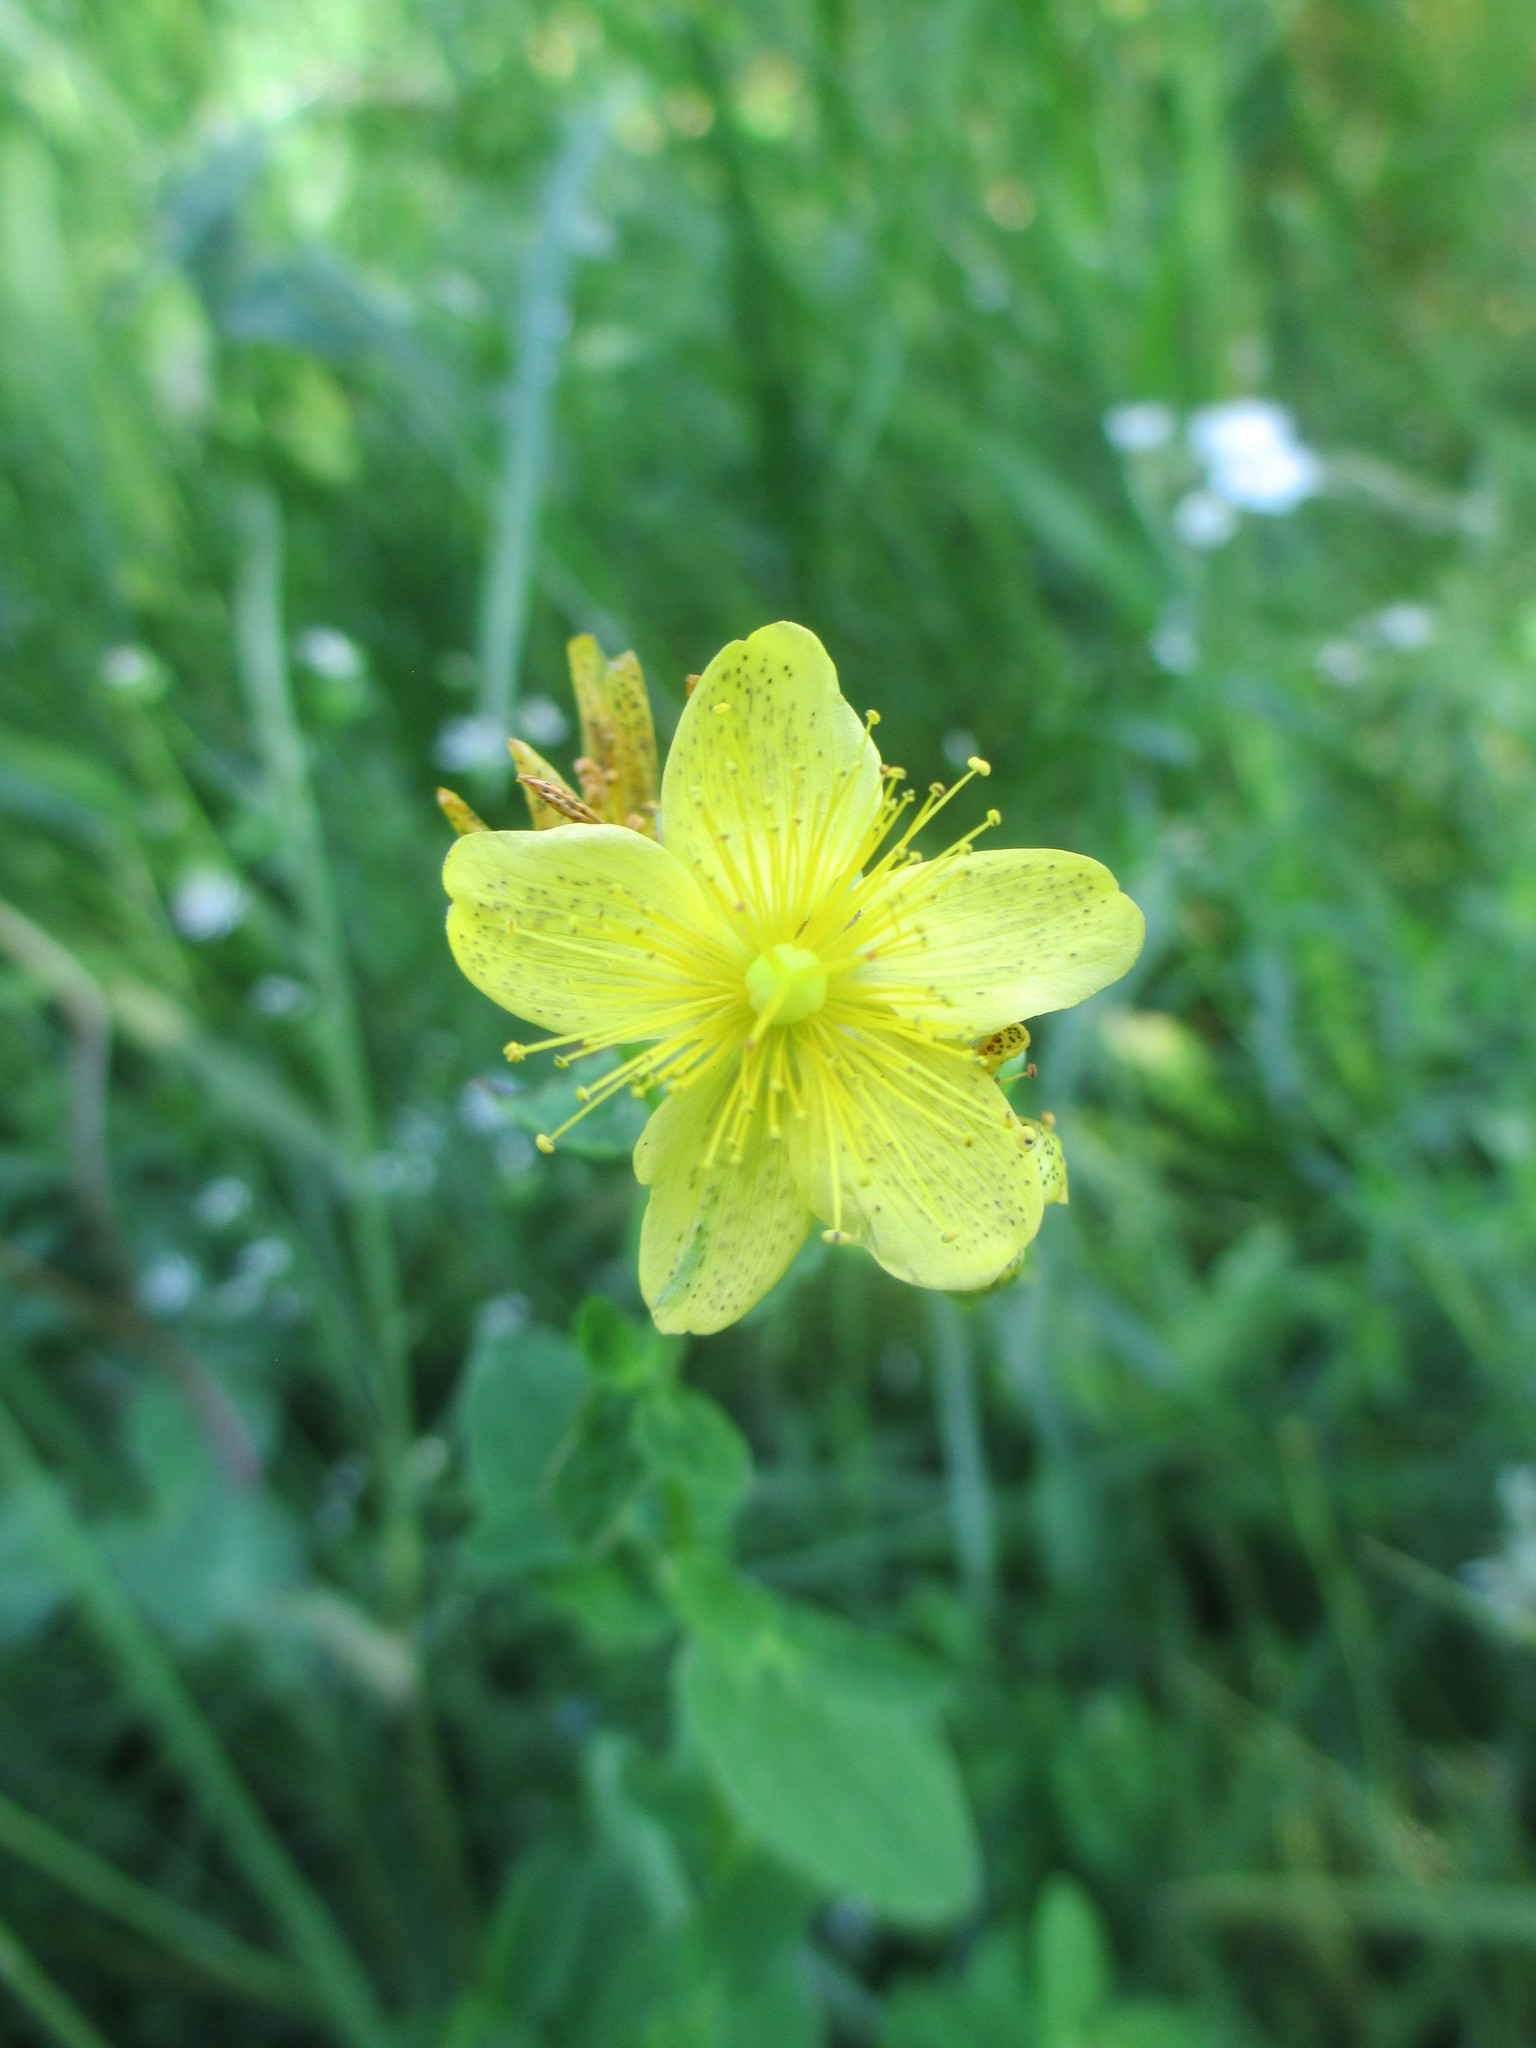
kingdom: Plantae
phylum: Tracheophyta
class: Magnoliopsida
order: Malpighiales
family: Hypericaceae
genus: Hypericum
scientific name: Hypericum maculatum
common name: Imperforate st. john's-wort
